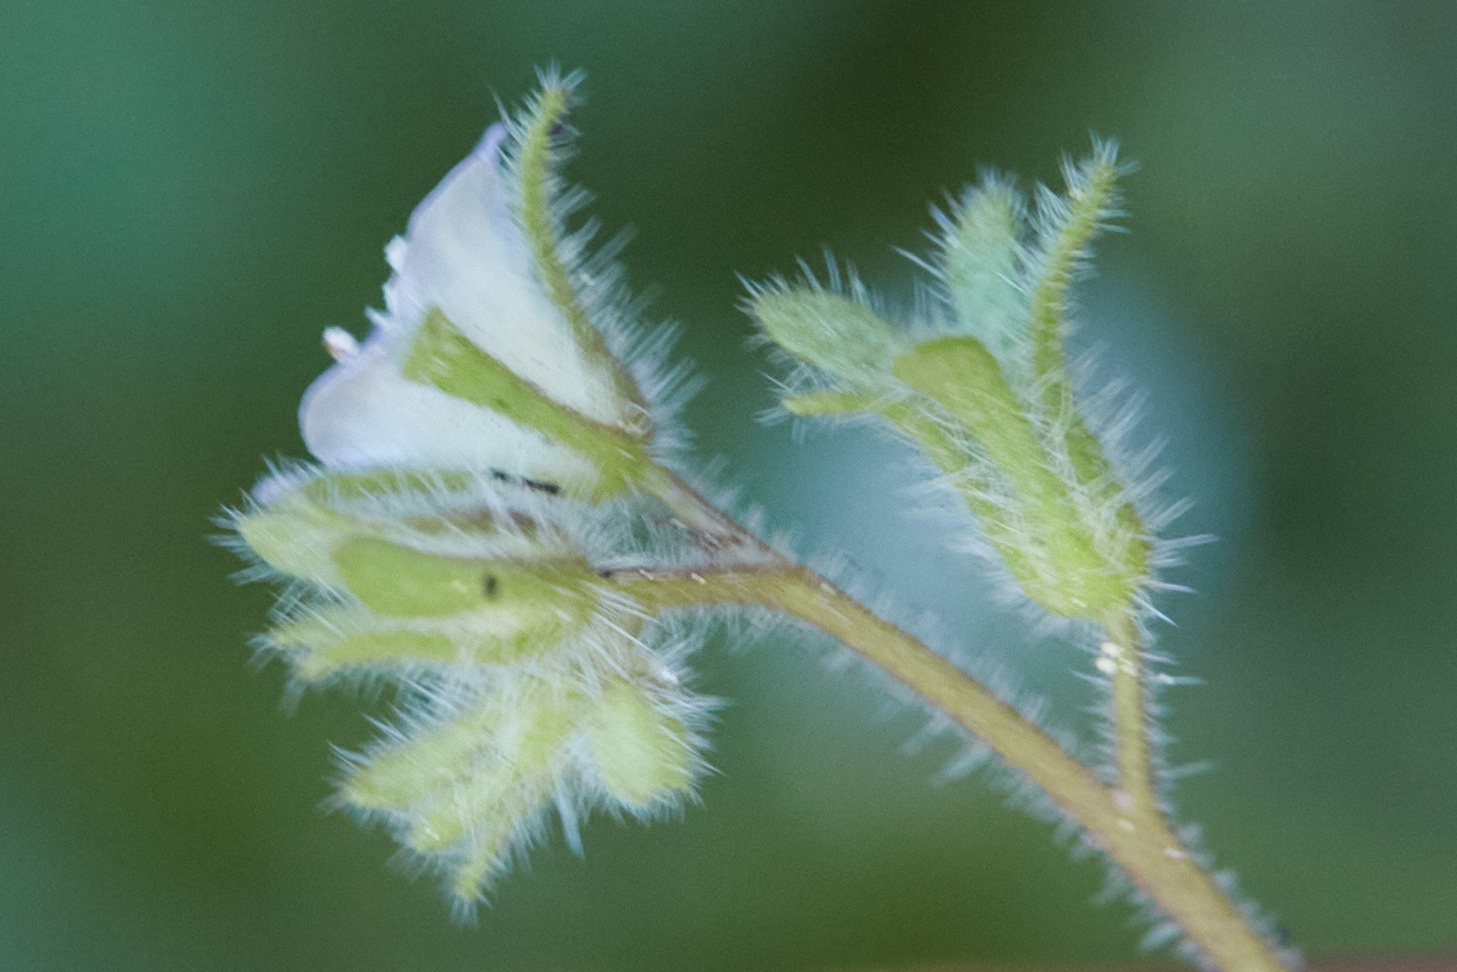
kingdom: Plantae
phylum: Tracheophyta
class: Magnoliopsida
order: Boraginales
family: Hydrophyllaceae
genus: Phacelia
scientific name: Phacelia eisenii
